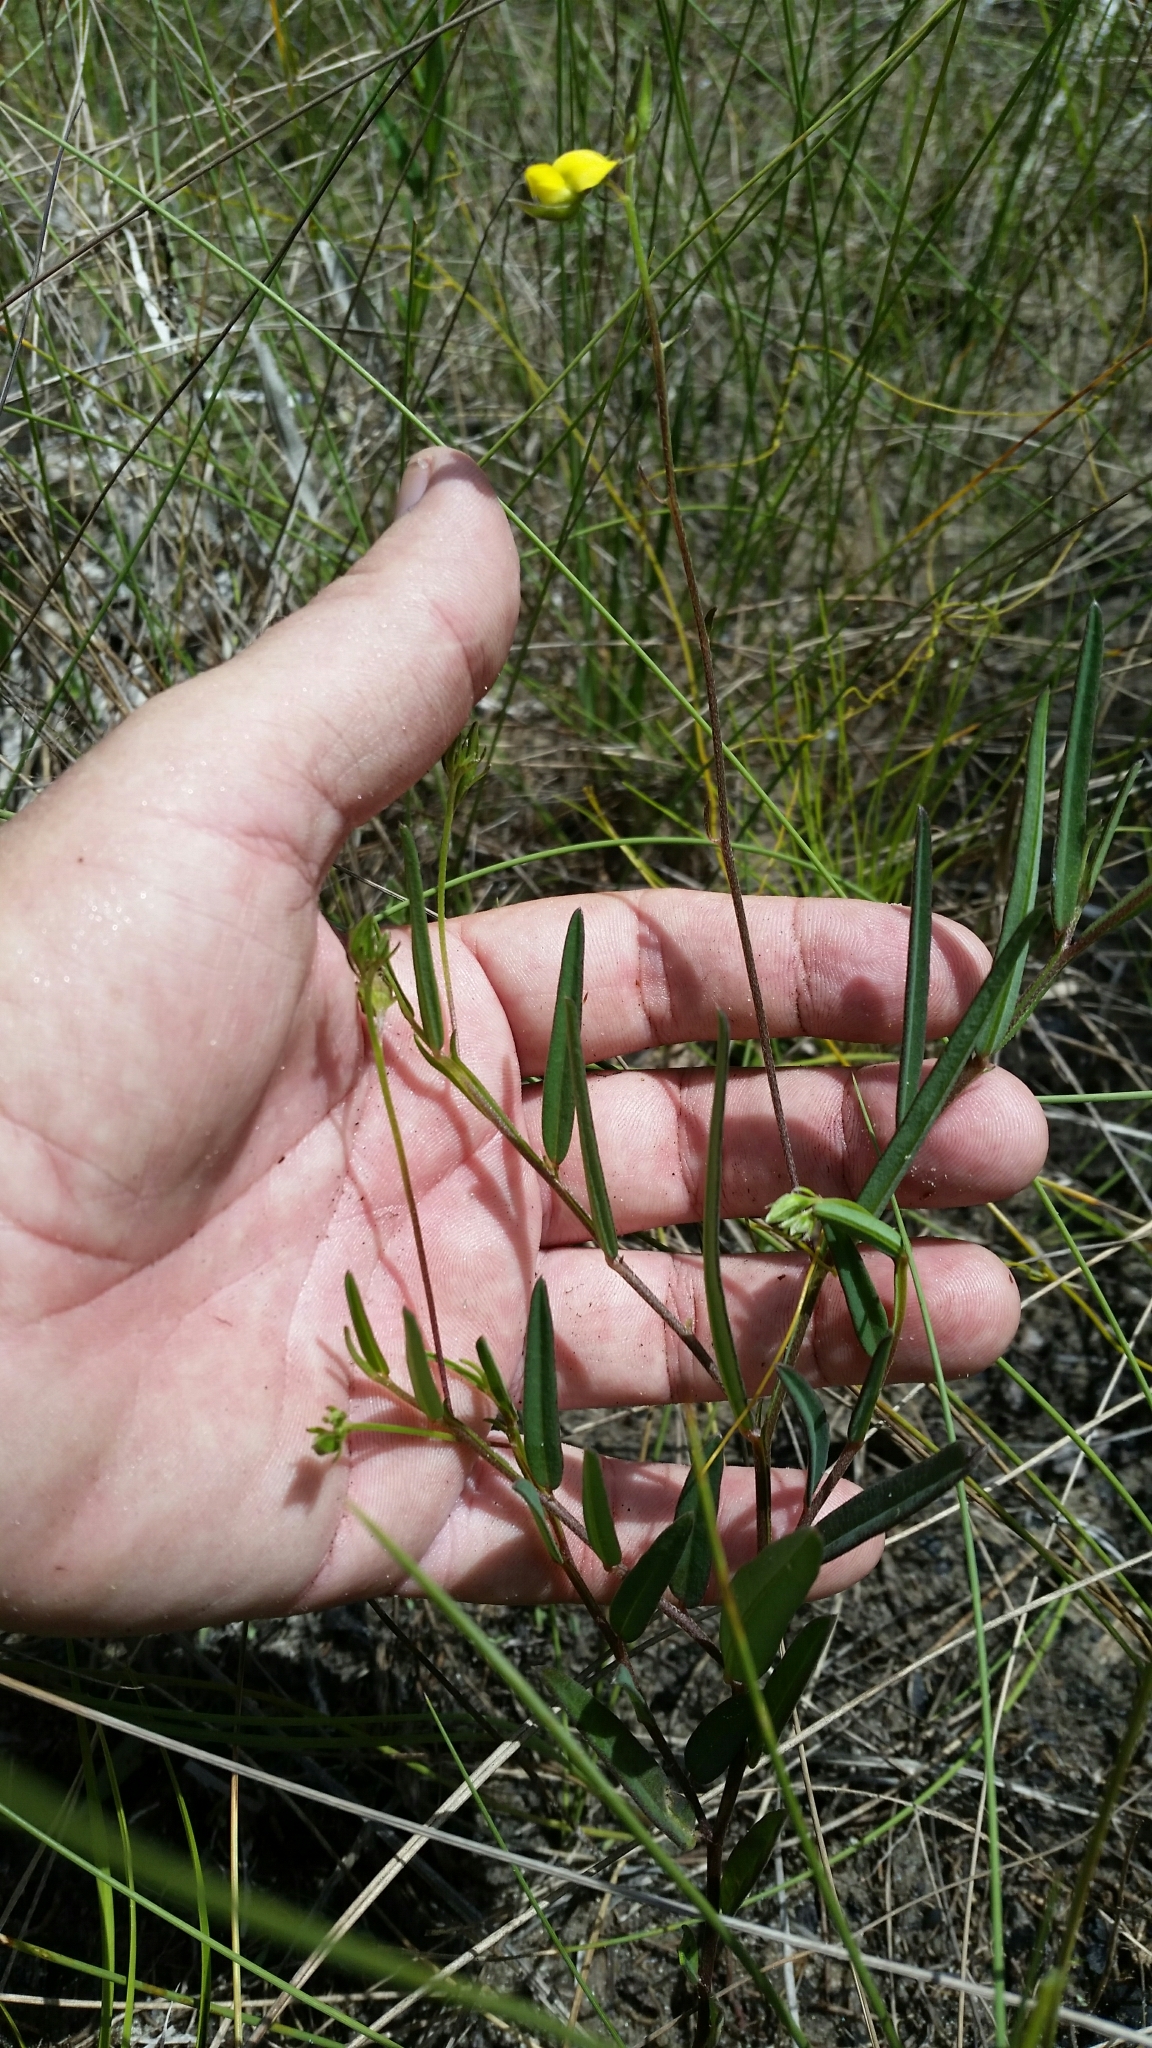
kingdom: Plantae
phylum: Tracheophyta
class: Magnoliopsida
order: Fabales
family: Fabaceae
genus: Crotalaria
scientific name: Crotalaria rotundifolia
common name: Prostrate rattlebox
